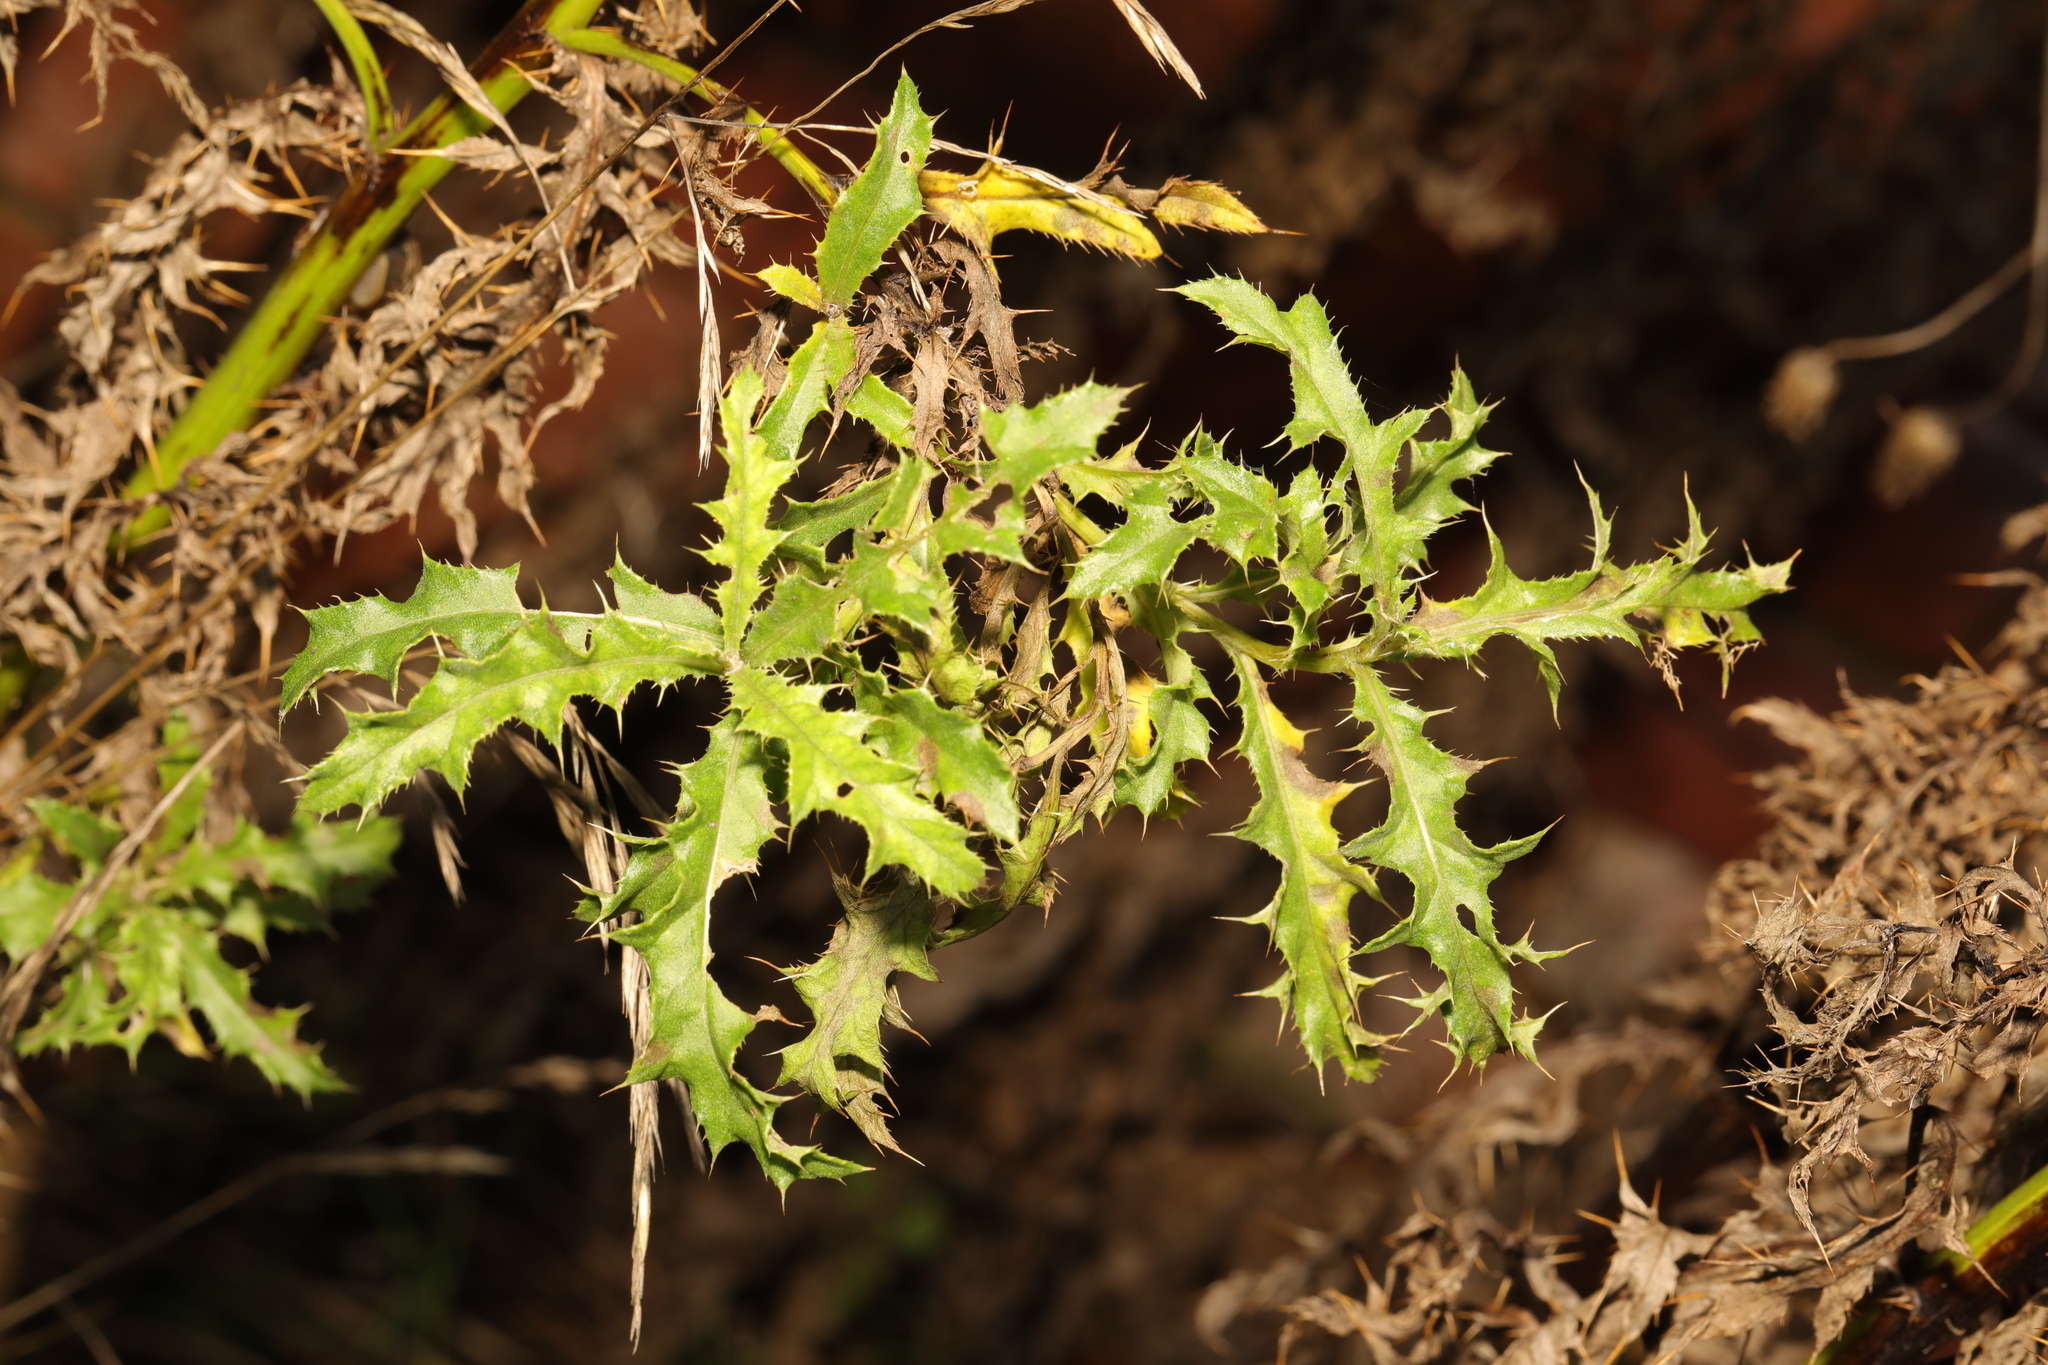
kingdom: Plantae
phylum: Tracheophyta
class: Magnoliopsida
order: Asterales
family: Asteraceae
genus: Cirsium
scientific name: Cirsium arvense
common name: Creeping thistle
